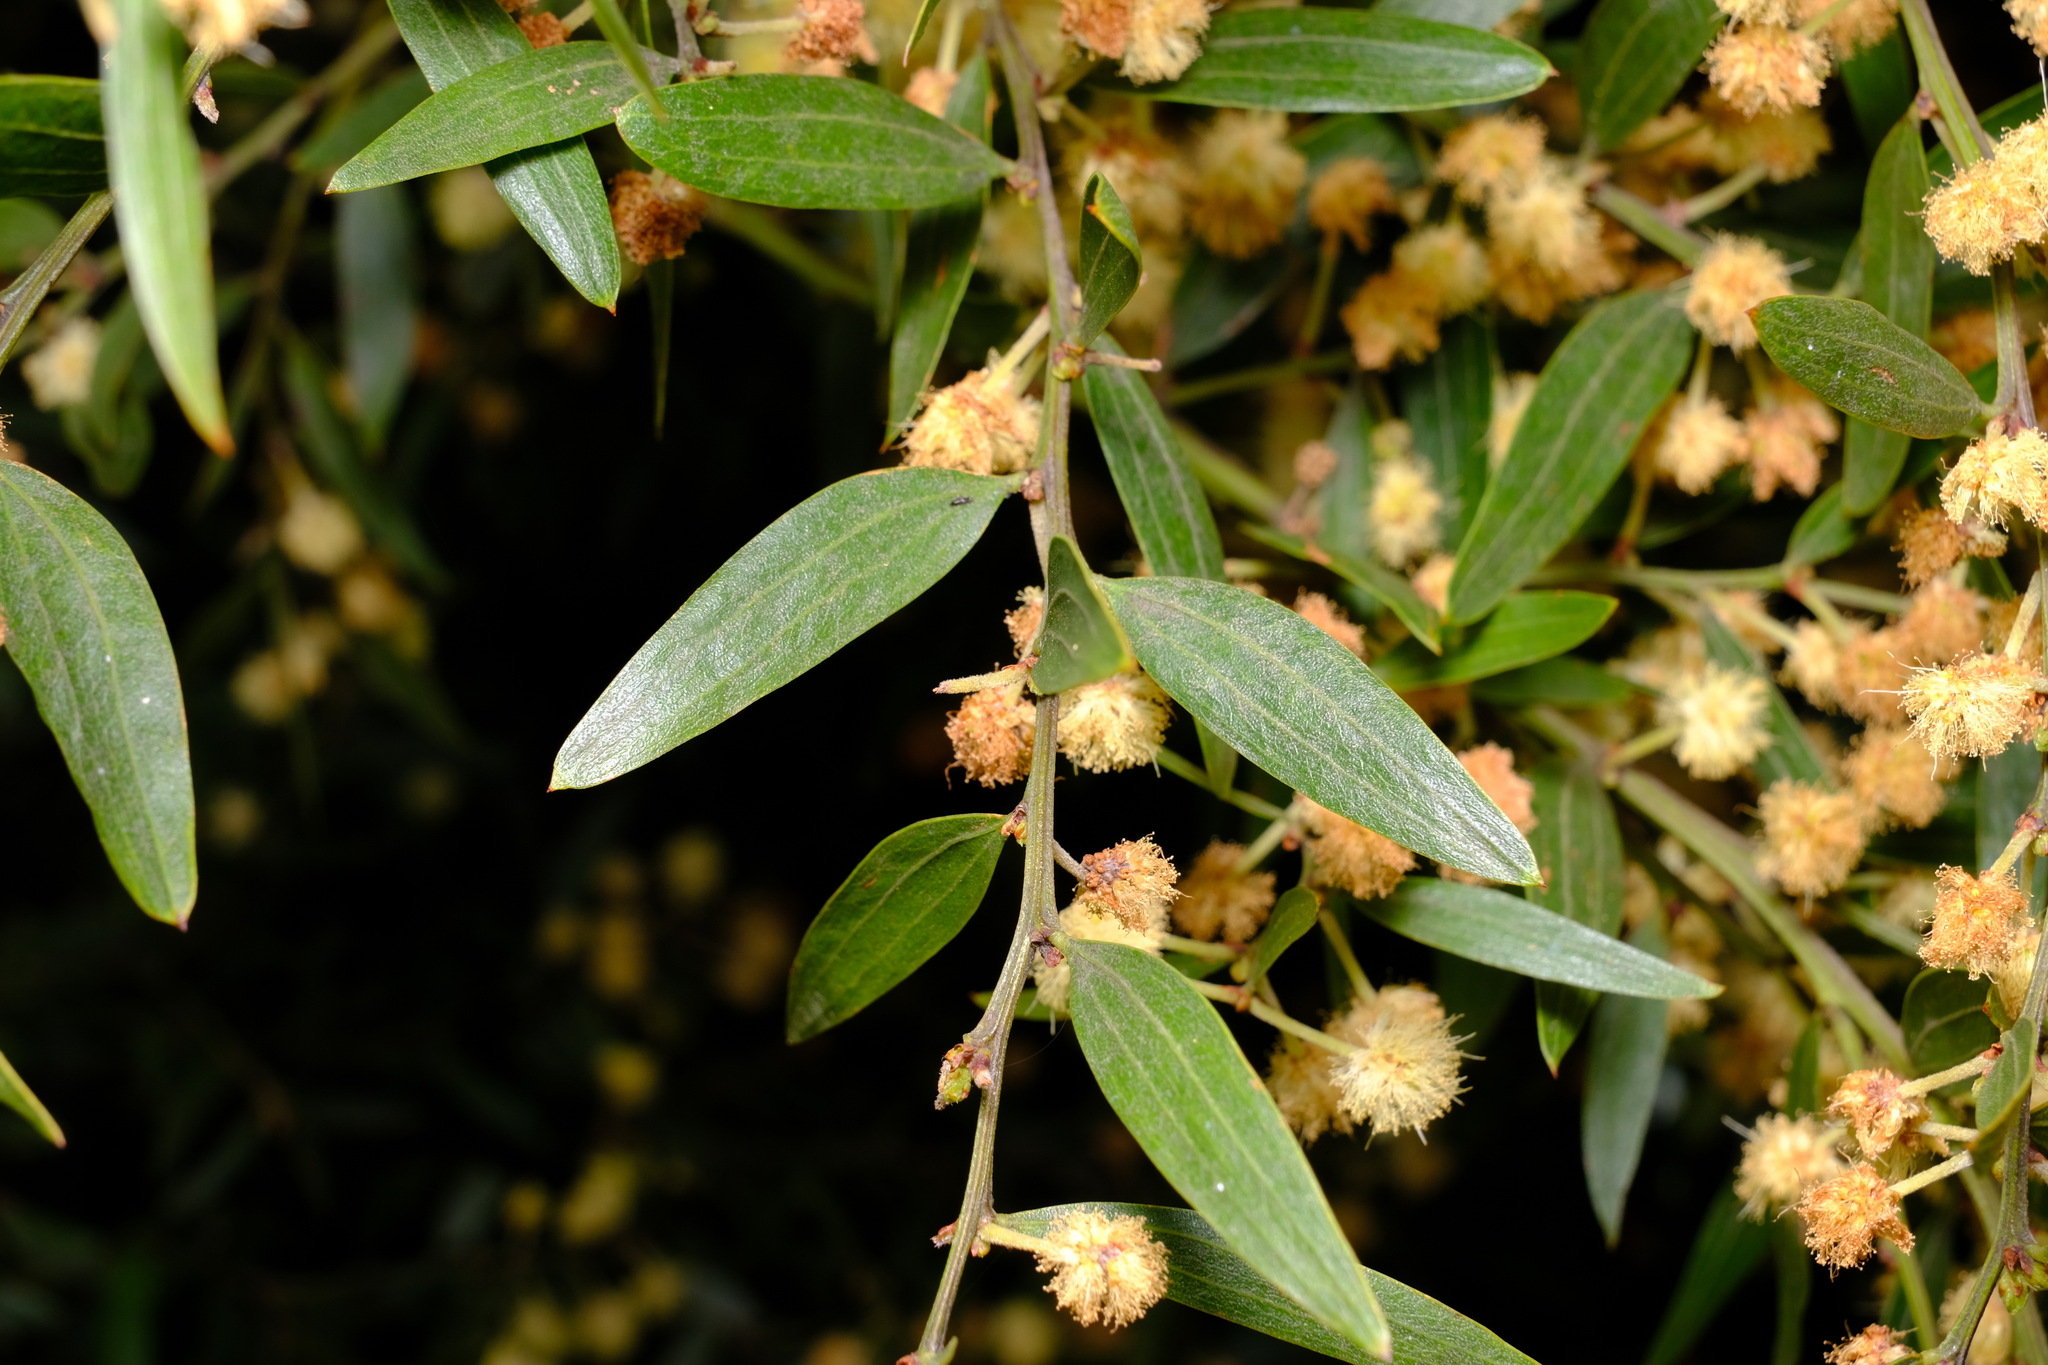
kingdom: Plantae
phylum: Tracheophyta
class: Magnoliopsida
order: Fabales
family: Fabaceae
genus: Acacia
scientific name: Acacia verniciflua
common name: Varnish wattle
